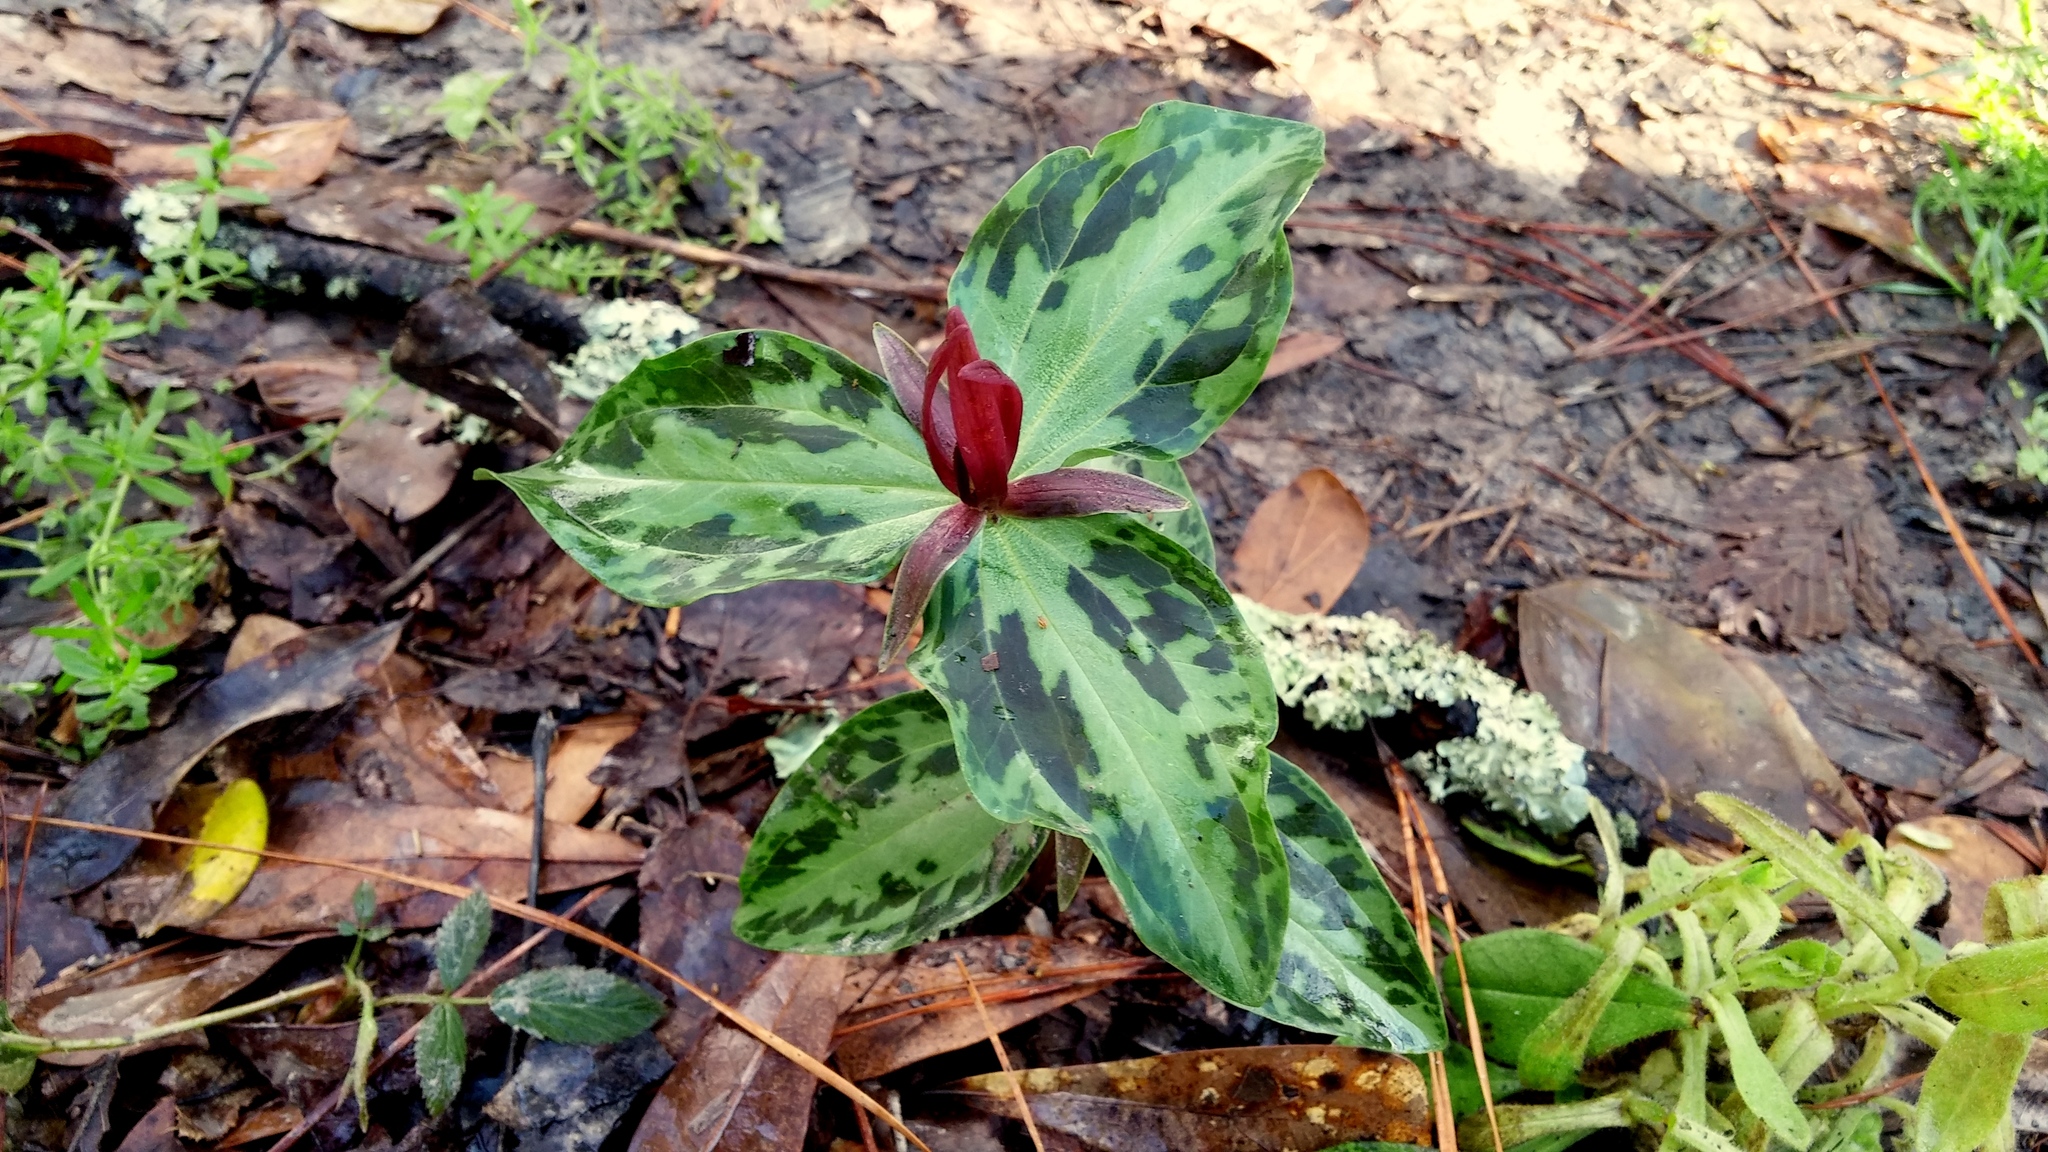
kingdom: Plantae
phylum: Tracheophyta
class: Liliopsida
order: Liliales
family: Melanthiaceae
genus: Trillium
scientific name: Trillium foetidissimum
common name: Mississippi river trillium
